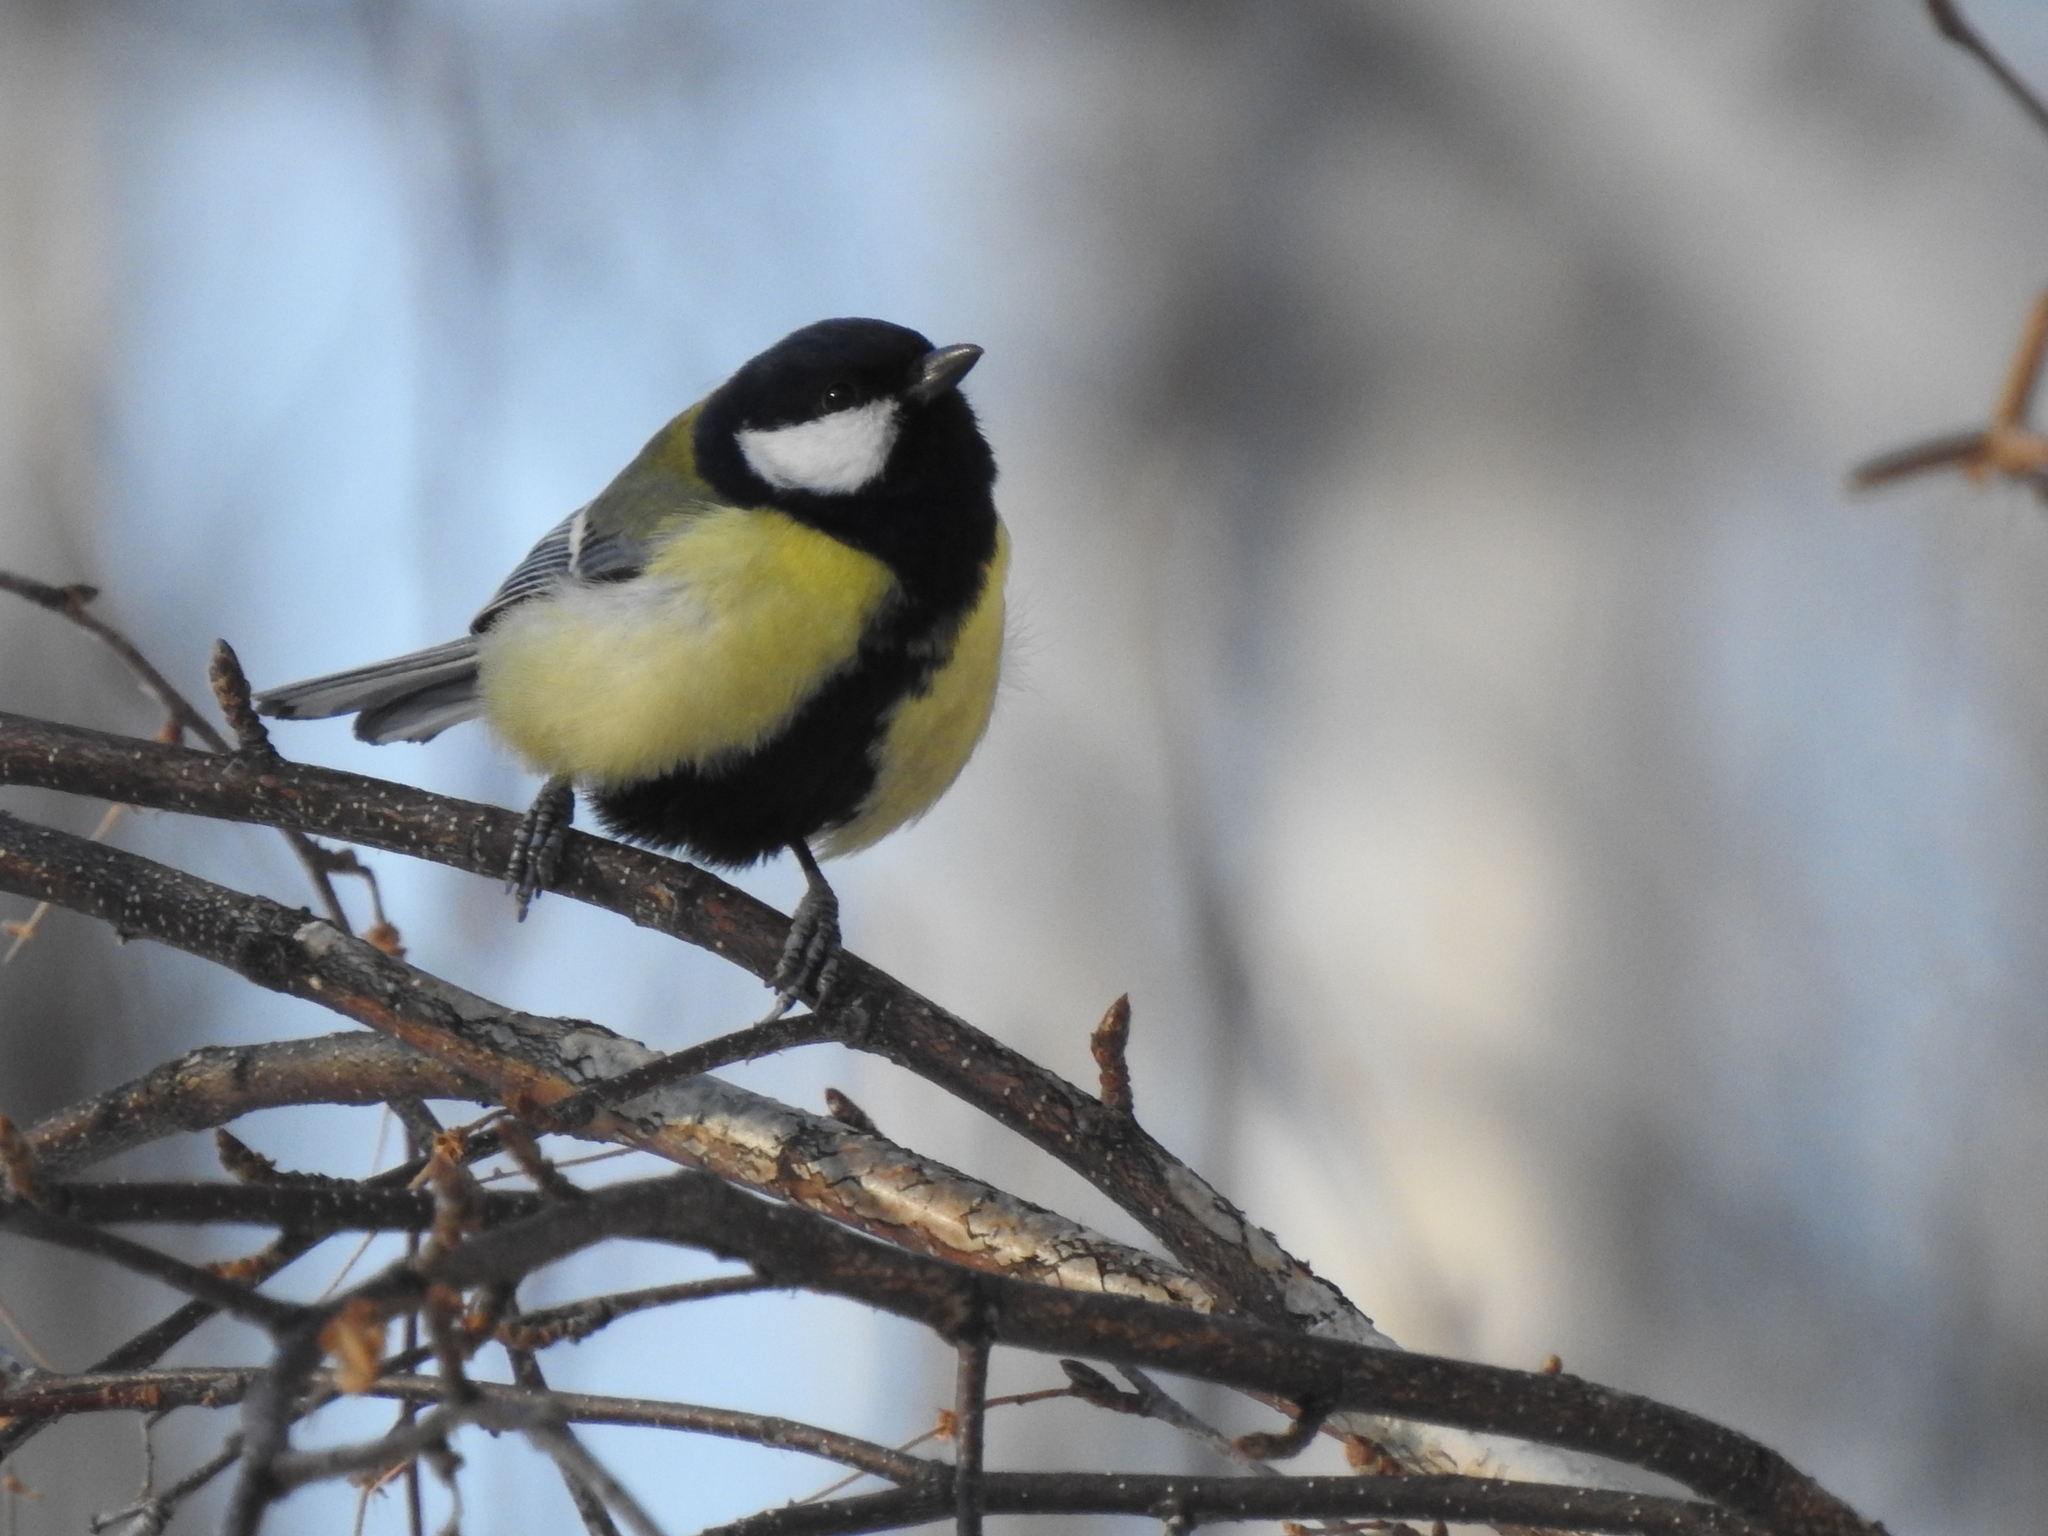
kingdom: Animalia
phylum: Chordata
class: Aves
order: Passeriformes
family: Paridae
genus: Parus
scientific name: Parus major
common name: Great tit
